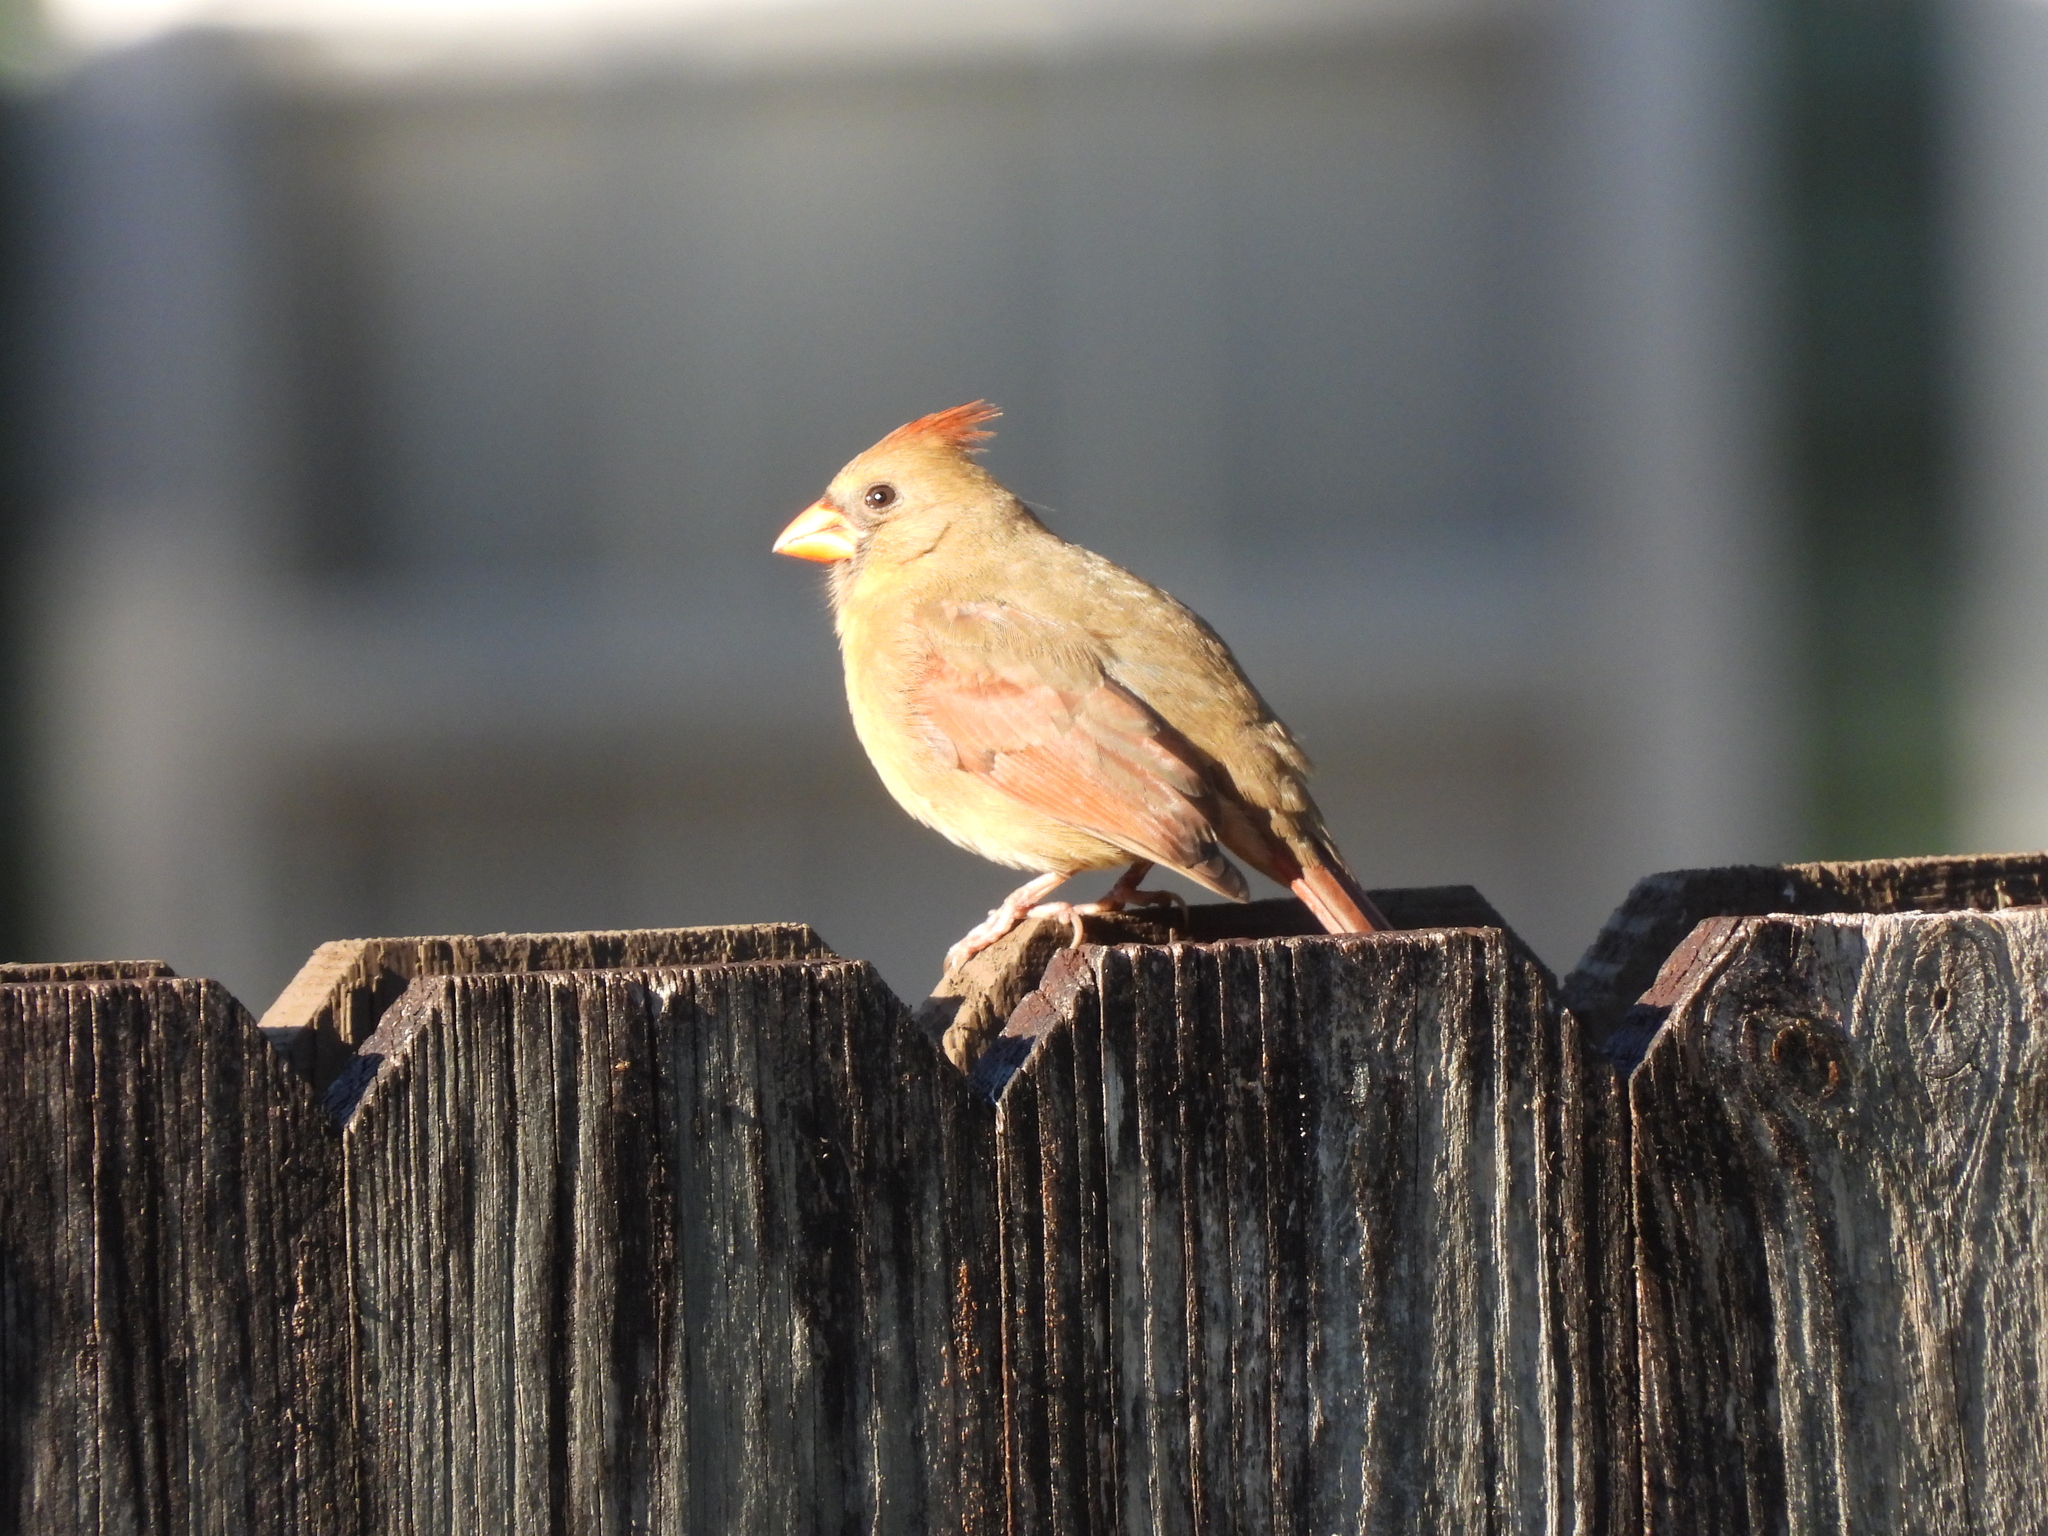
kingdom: Animalia
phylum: Chordata
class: Aves
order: Passeriformes
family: Cardinalidae
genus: Cardinalis
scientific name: Cardinalis cardinalis
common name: Northern cardinal
